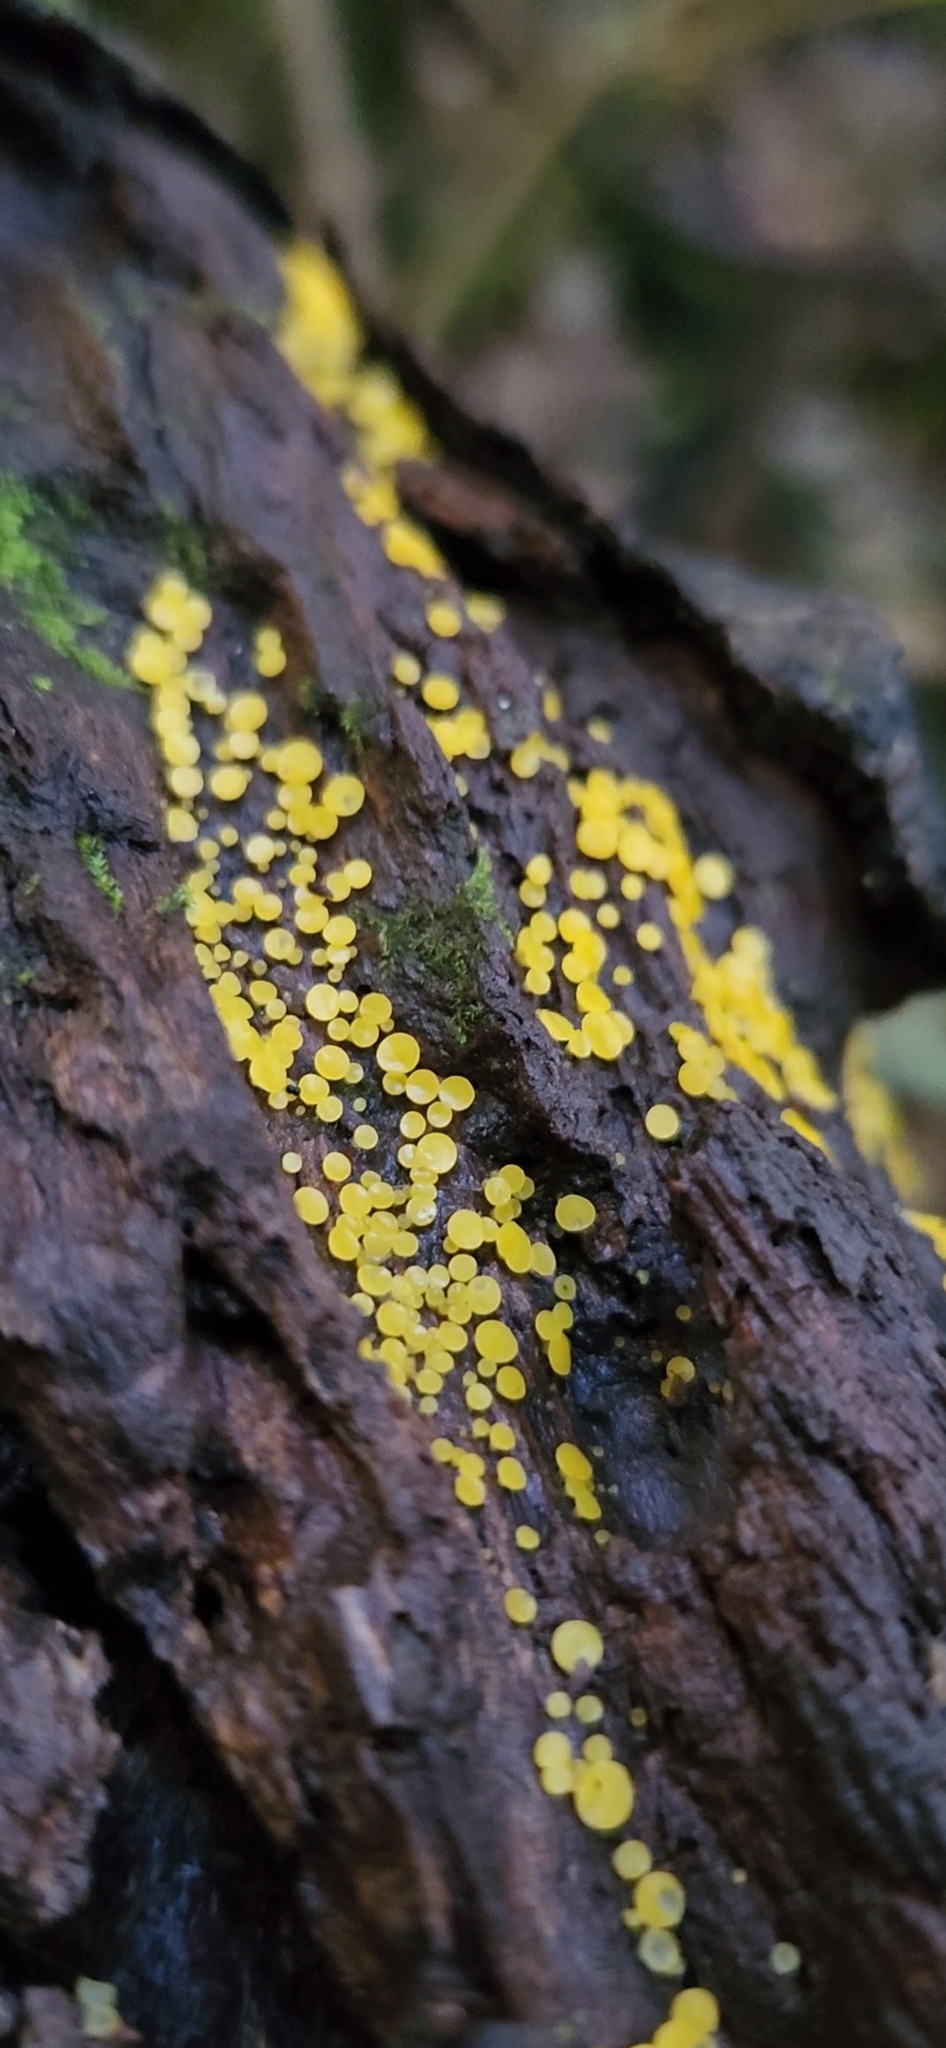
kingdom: Fungi
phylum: Ascomycota
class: Leotiomycetes
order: Helotiales
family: Pezizellaceae
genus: Calycina
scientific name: Calycina citrina
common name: Yellow fairy cups
